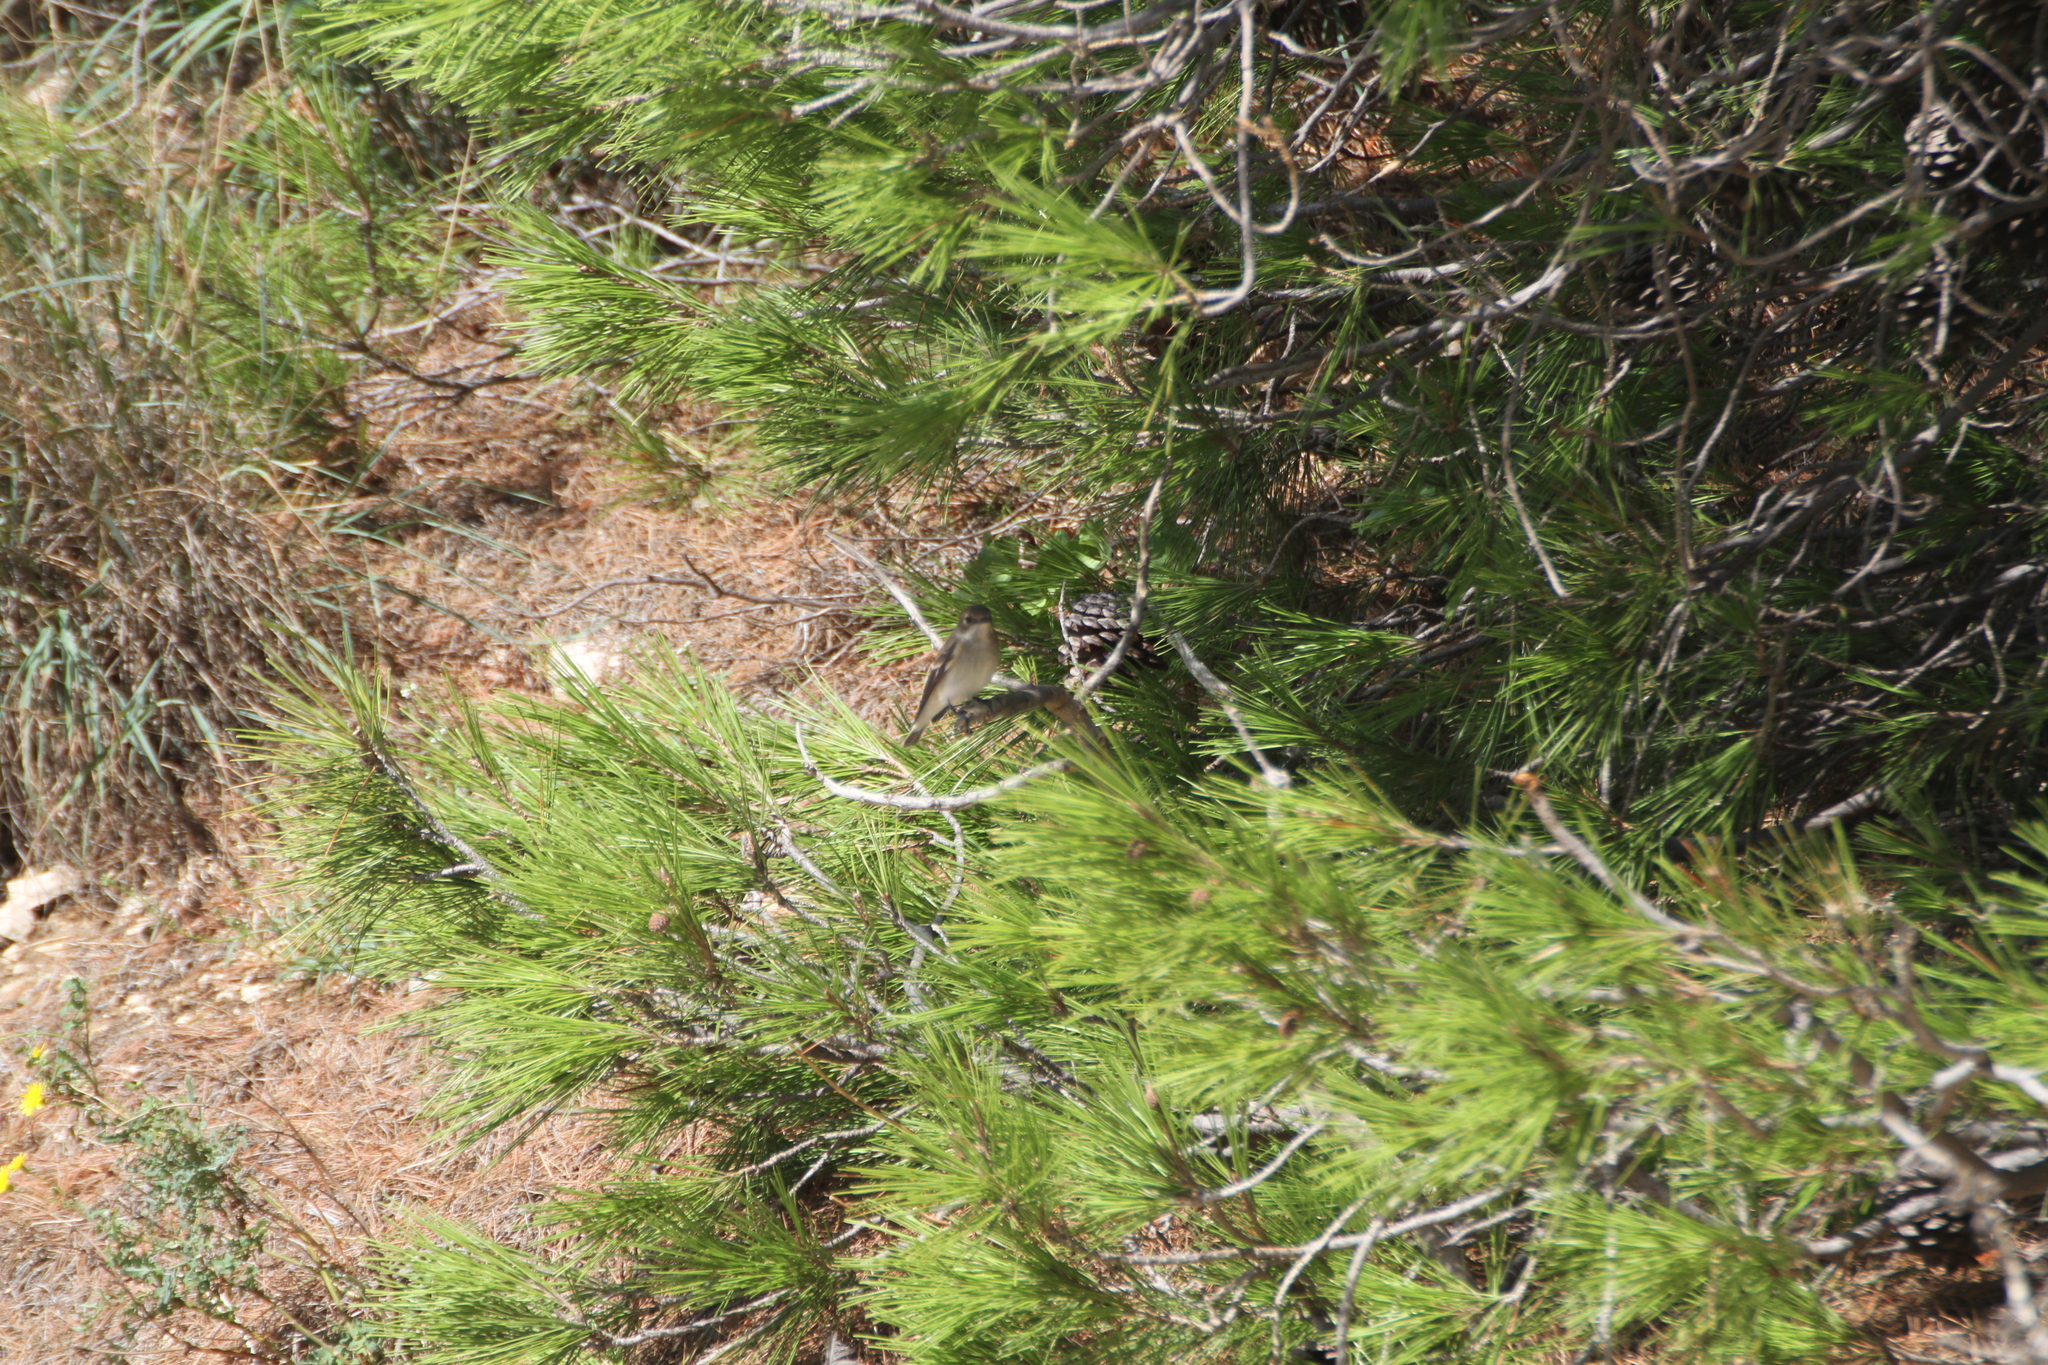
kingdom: Animalia
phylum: Chordata
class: Aves
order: Passeriformes
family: Muscicapidae
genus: Ficedula
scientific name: Ficedula hypoleuca
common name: European pied flycatcher
